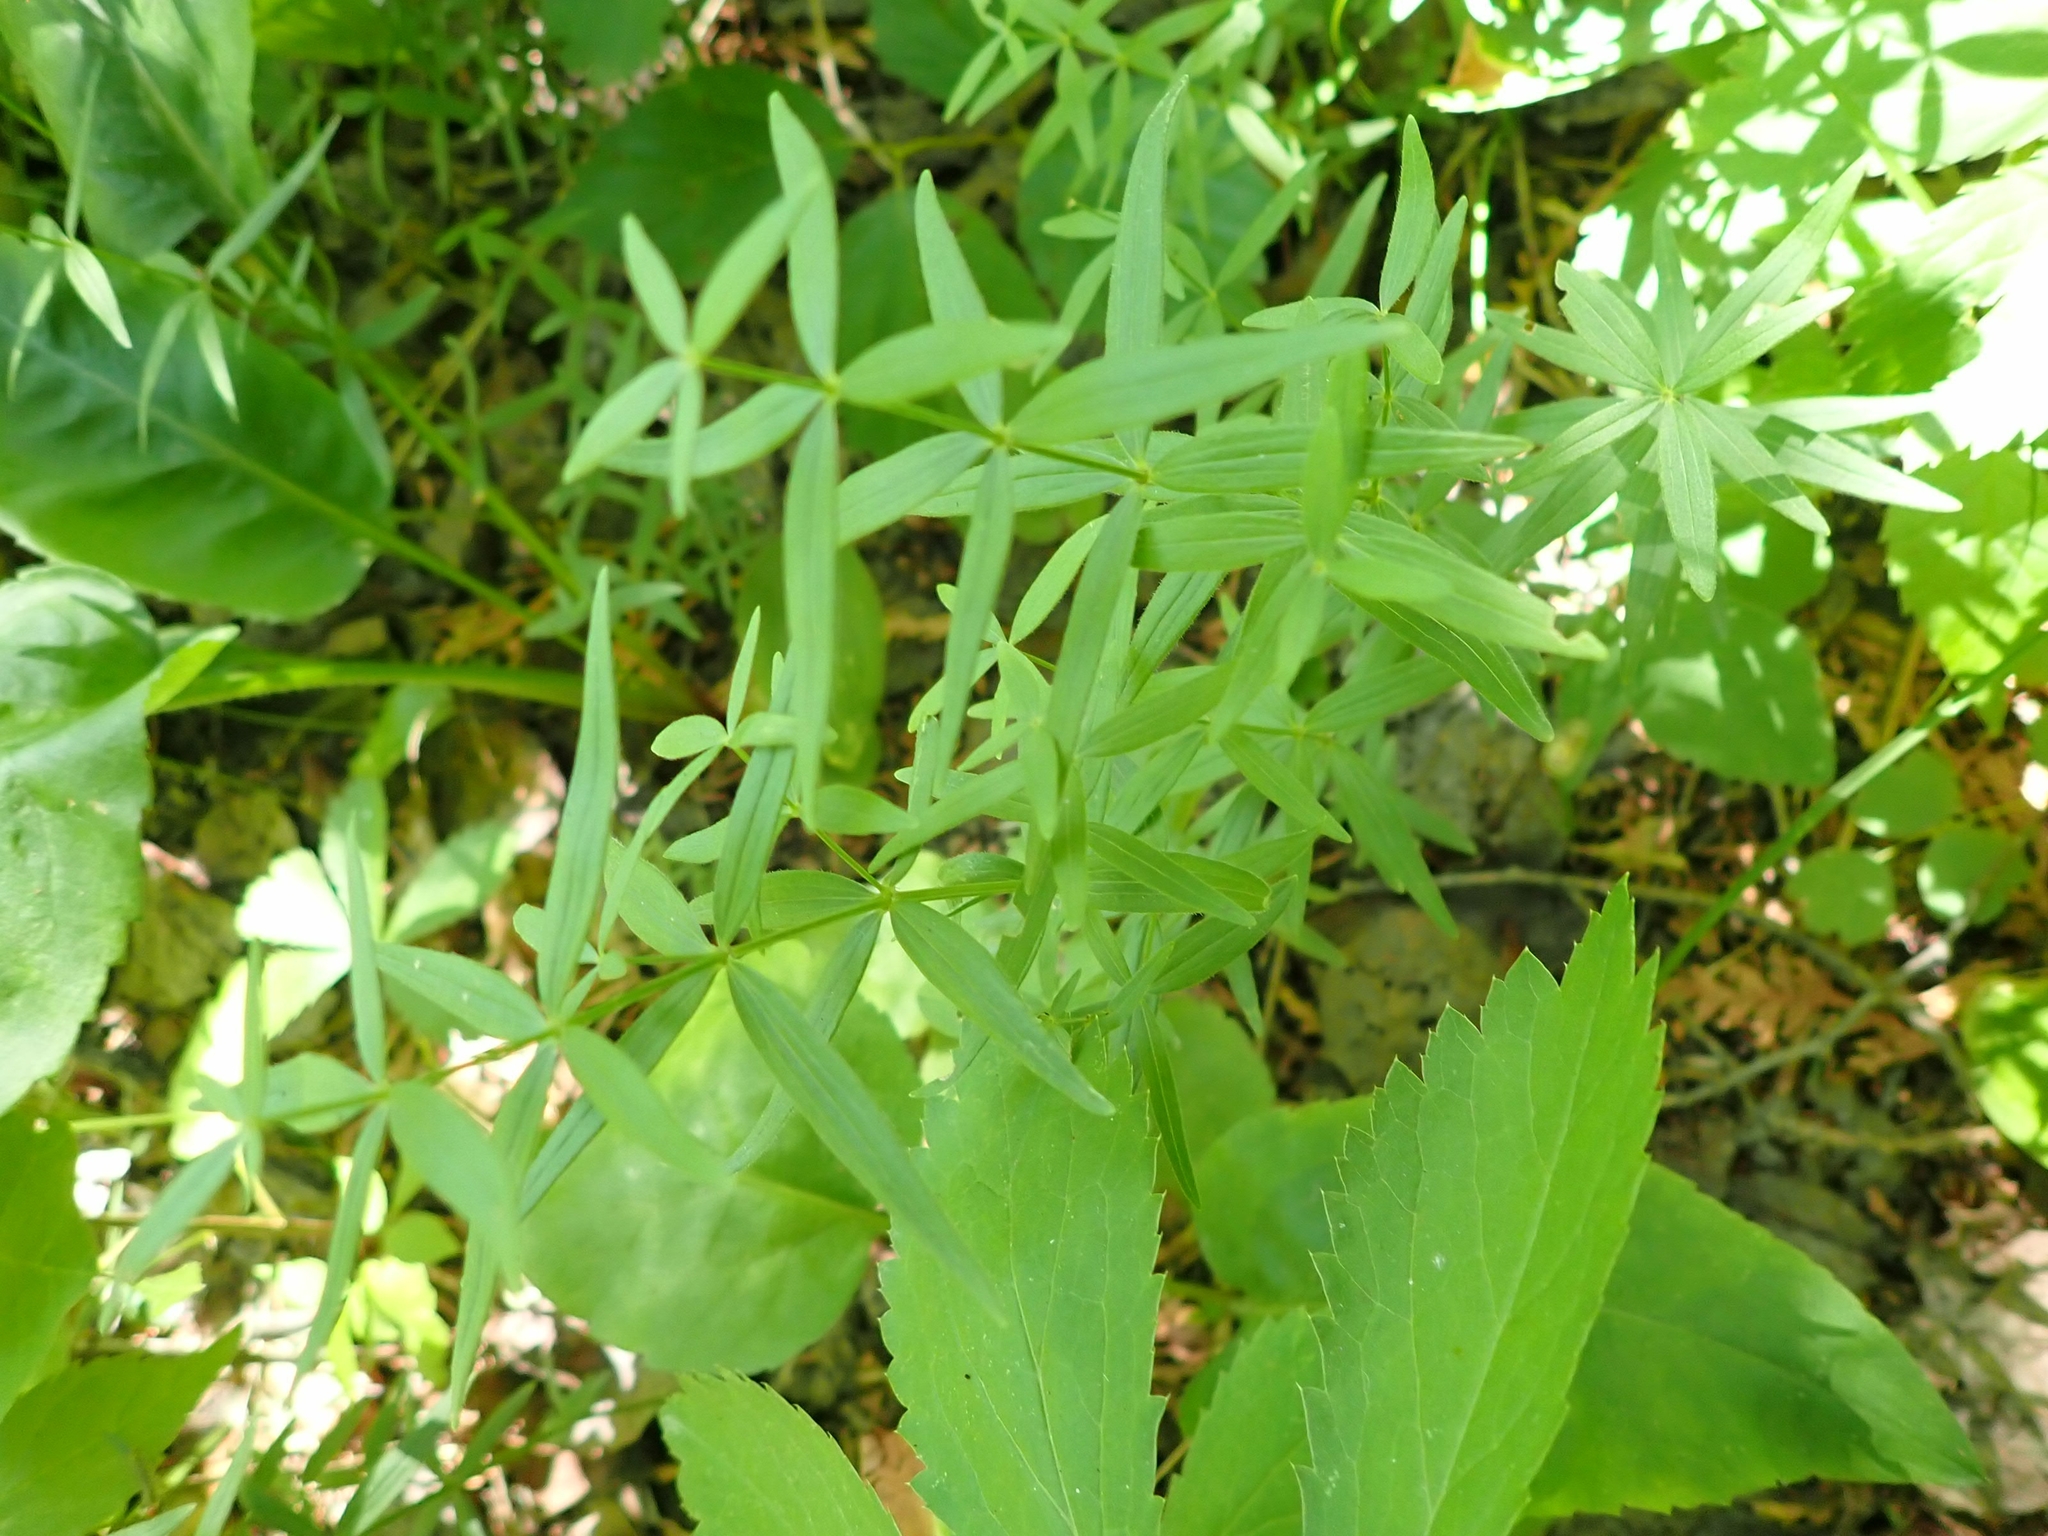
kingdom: Plantae
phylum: Tracheophyta
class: Magnoliopsida
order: Gentianales
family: Rubiaceae
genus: Galium
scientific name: Galium boreale
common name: Northern bedstraw
